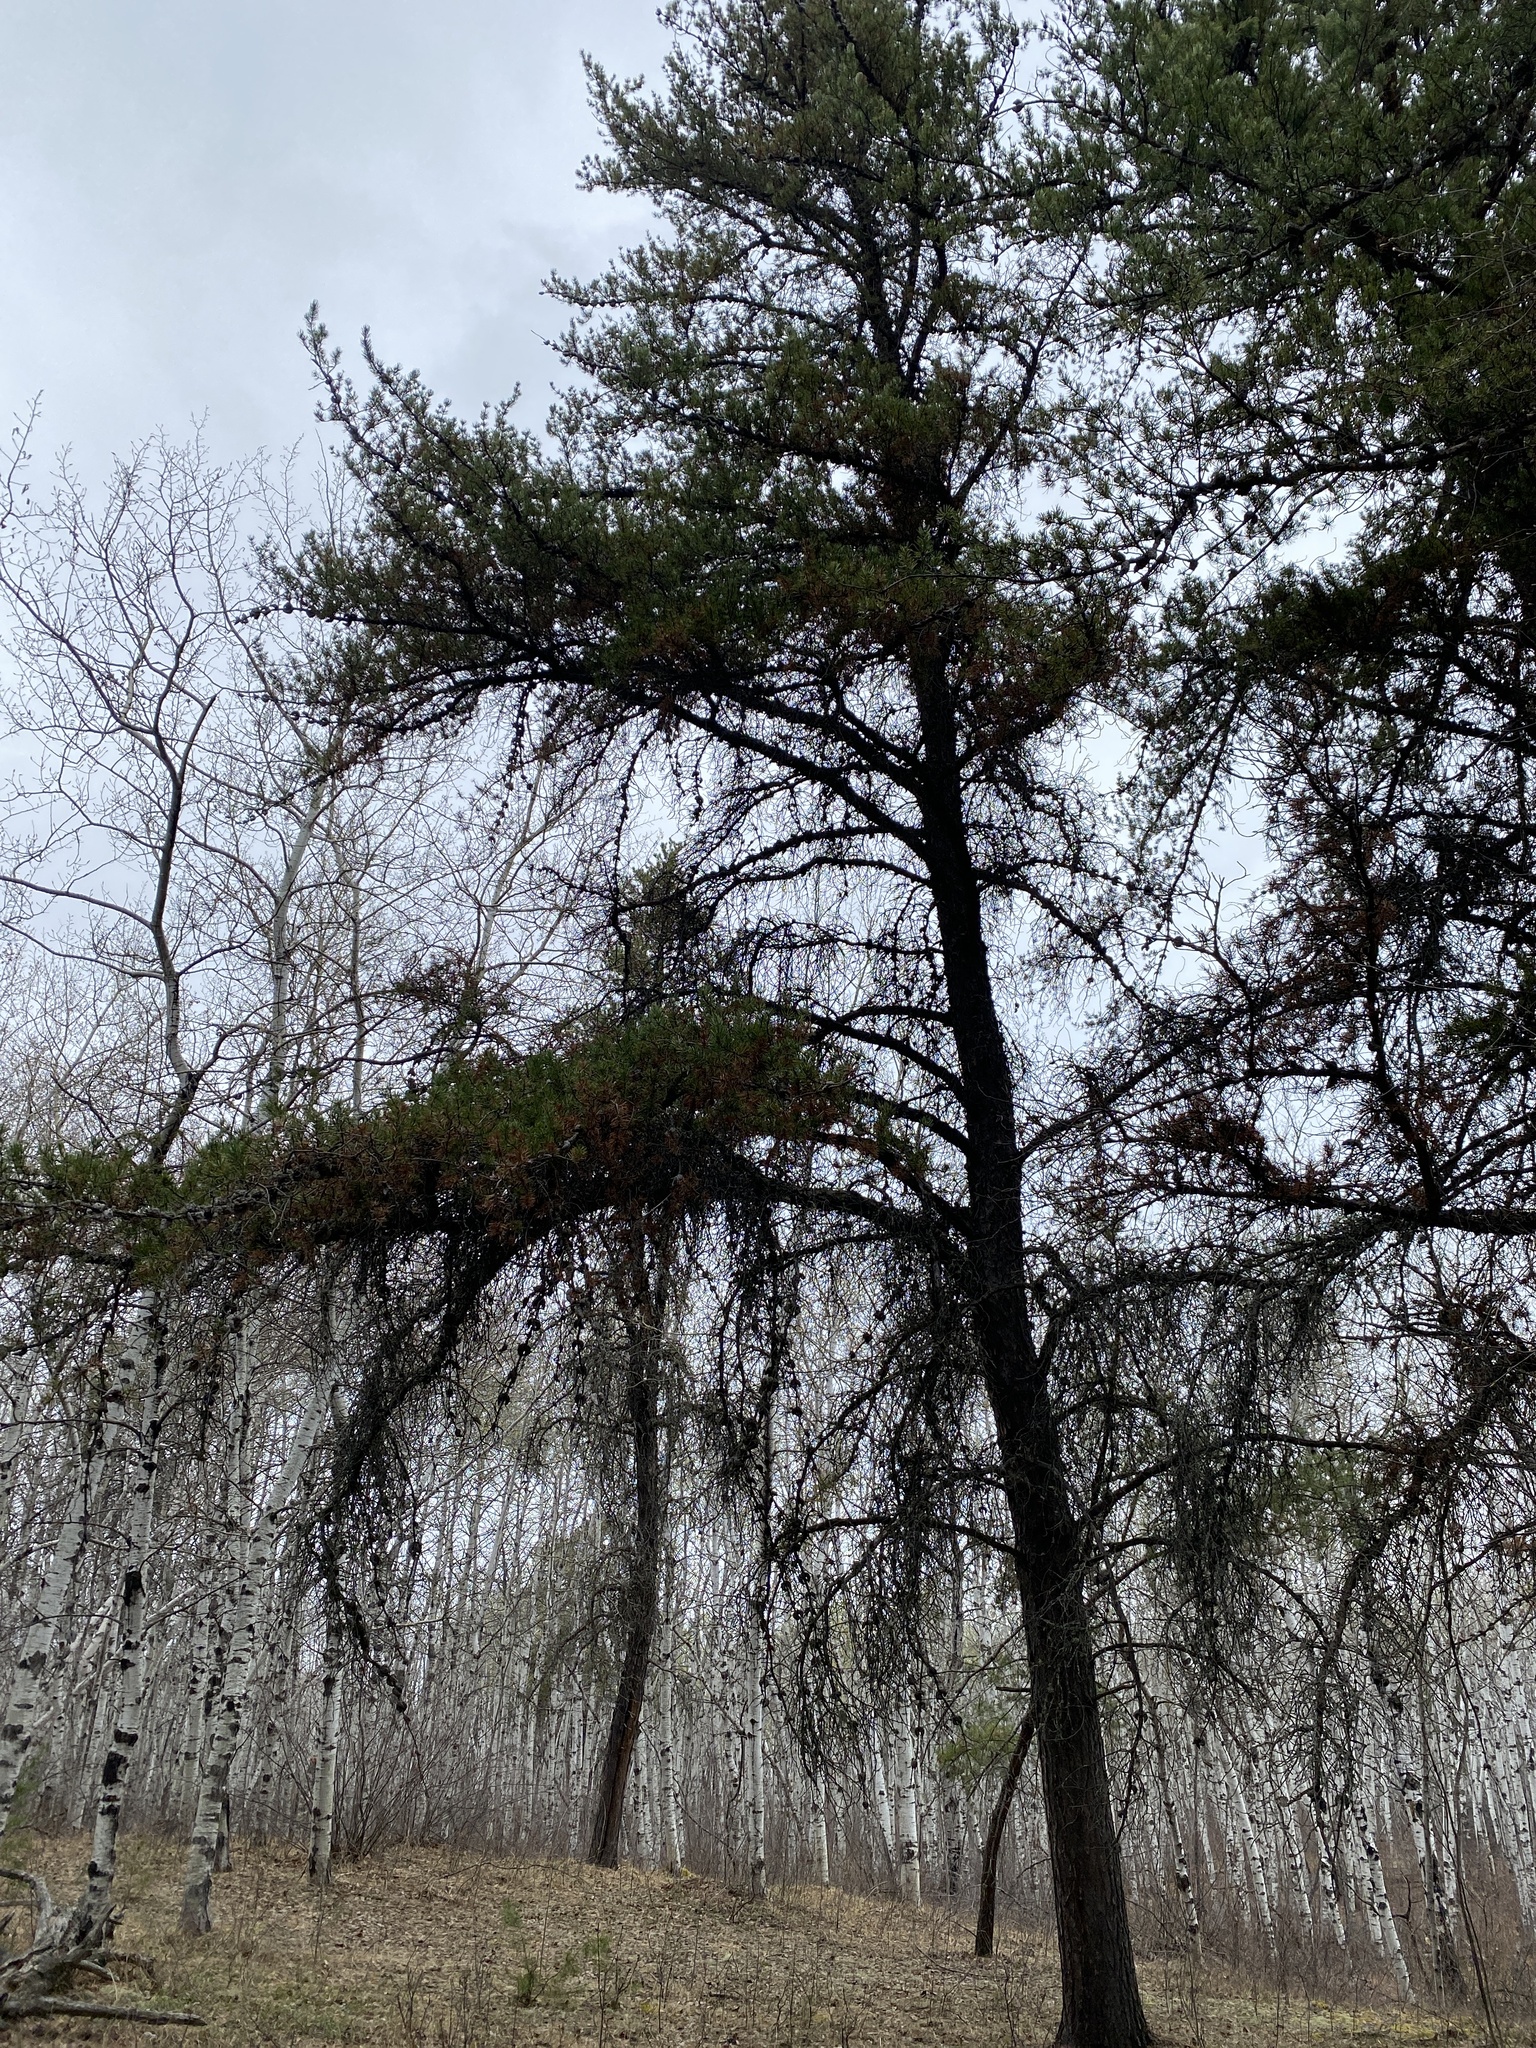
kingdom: Plantae
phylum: Tracheophyta
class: Pinopsida
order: Pinales
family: Pinaceae
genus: Pinus
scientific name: Pinus banksiana
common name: Jack pine
